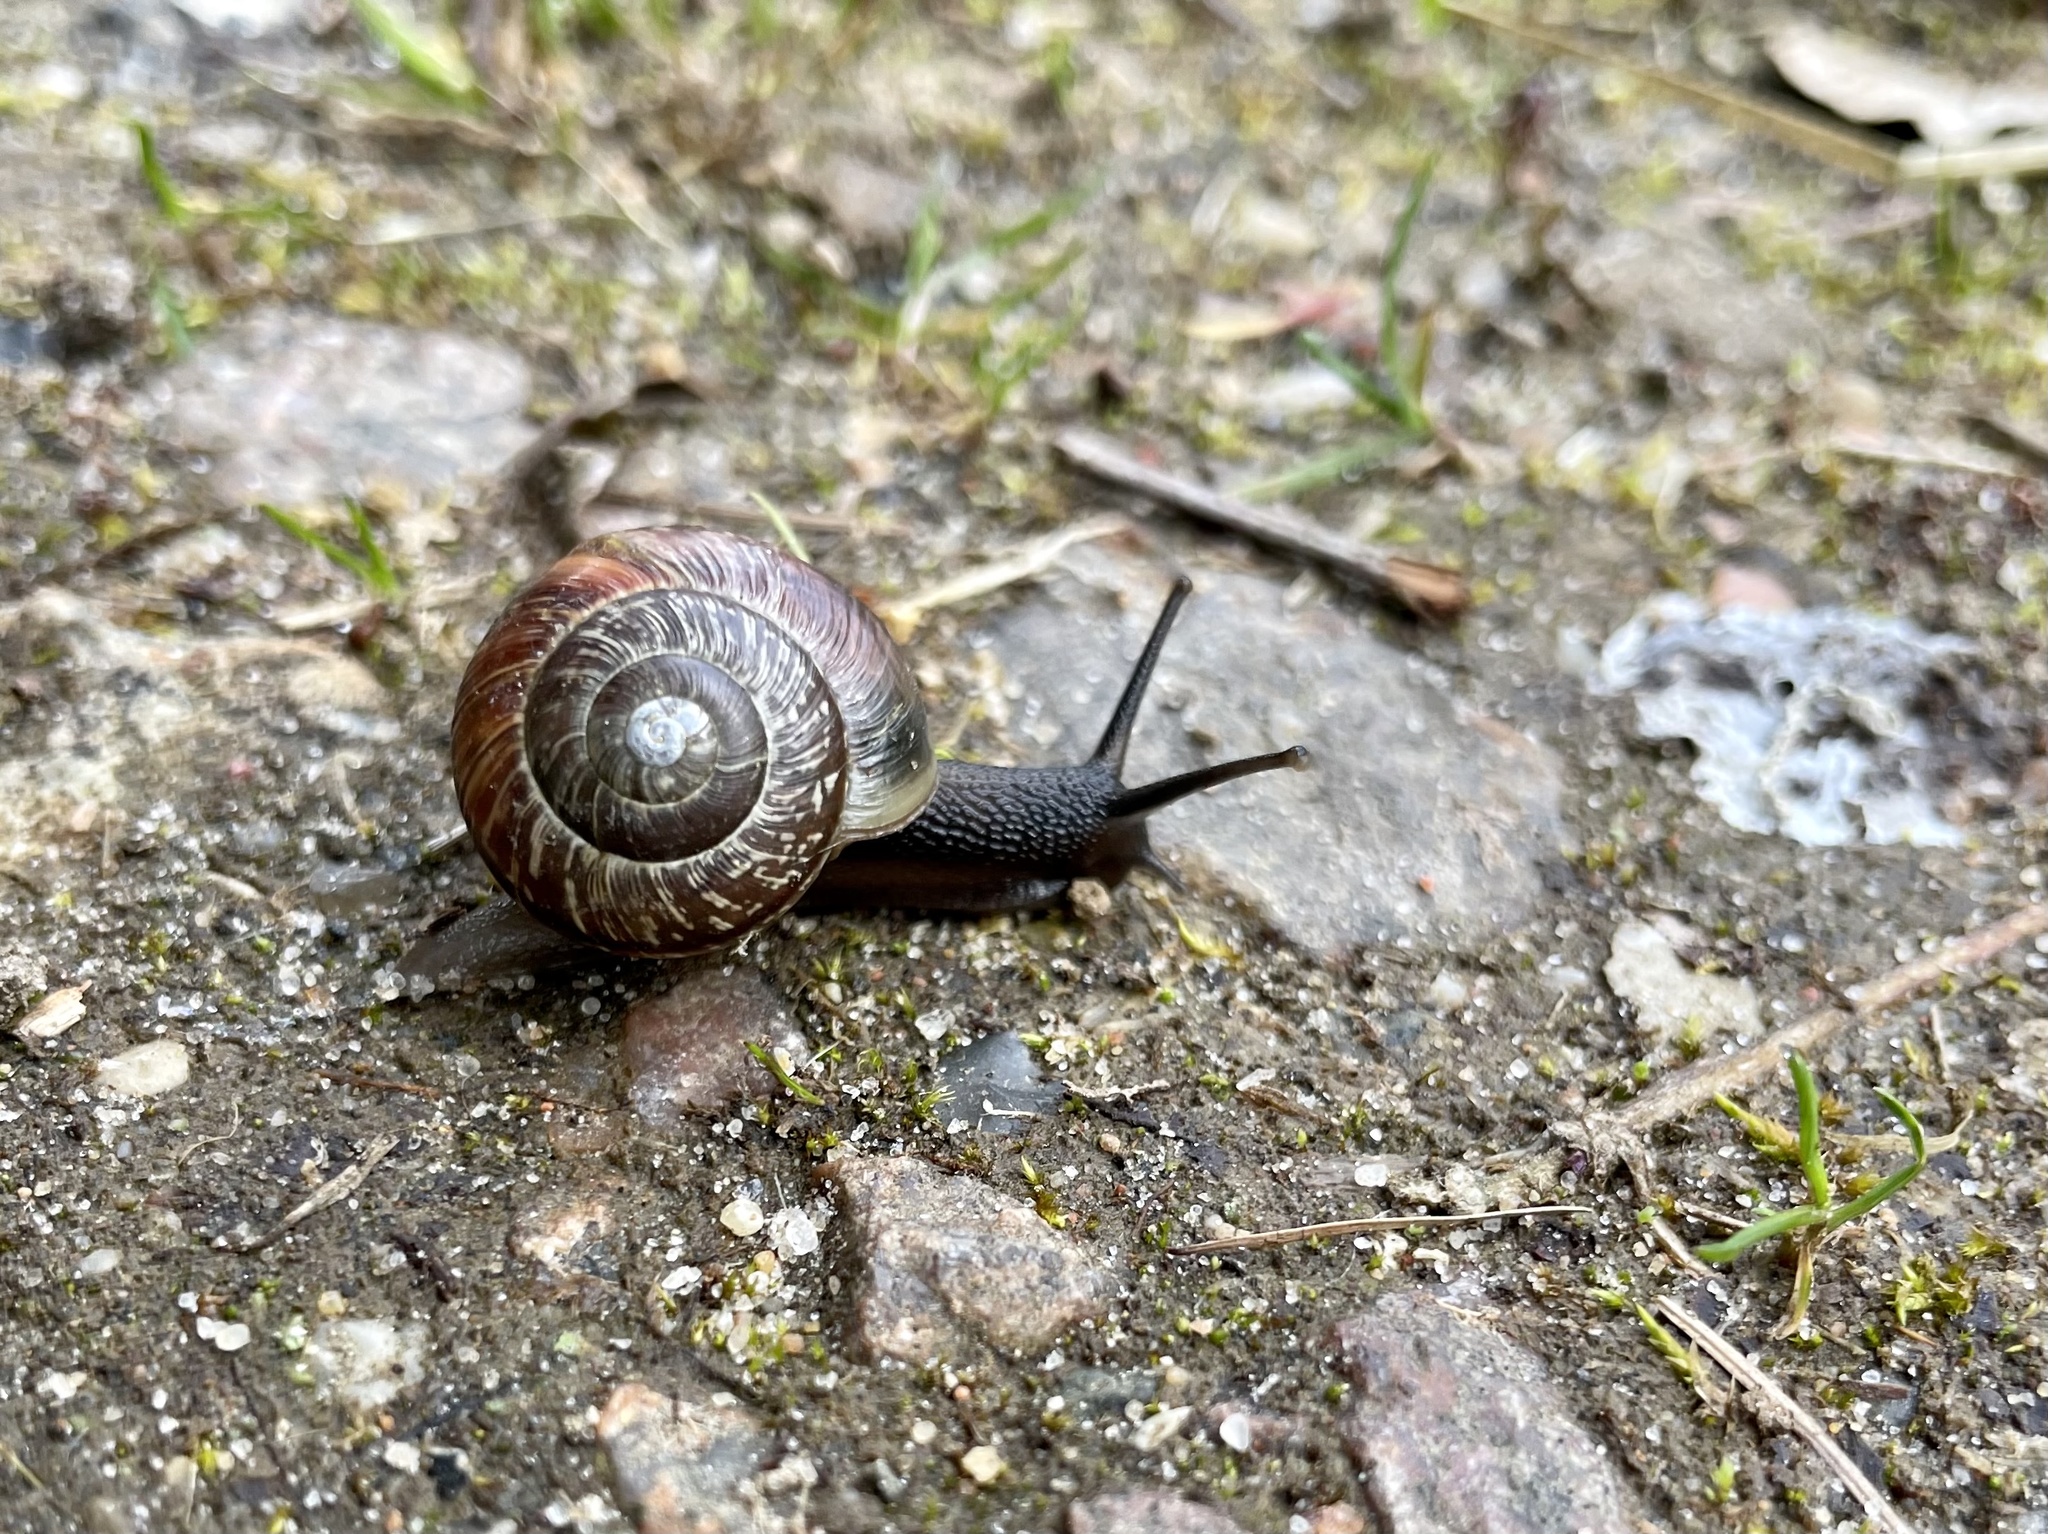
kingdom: Animalia
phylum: Mollusca
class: Gastropoda
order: Stylommatophora
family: Helicidae
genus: Arianta
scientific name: Arianta arbustorum
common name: Copse snail
